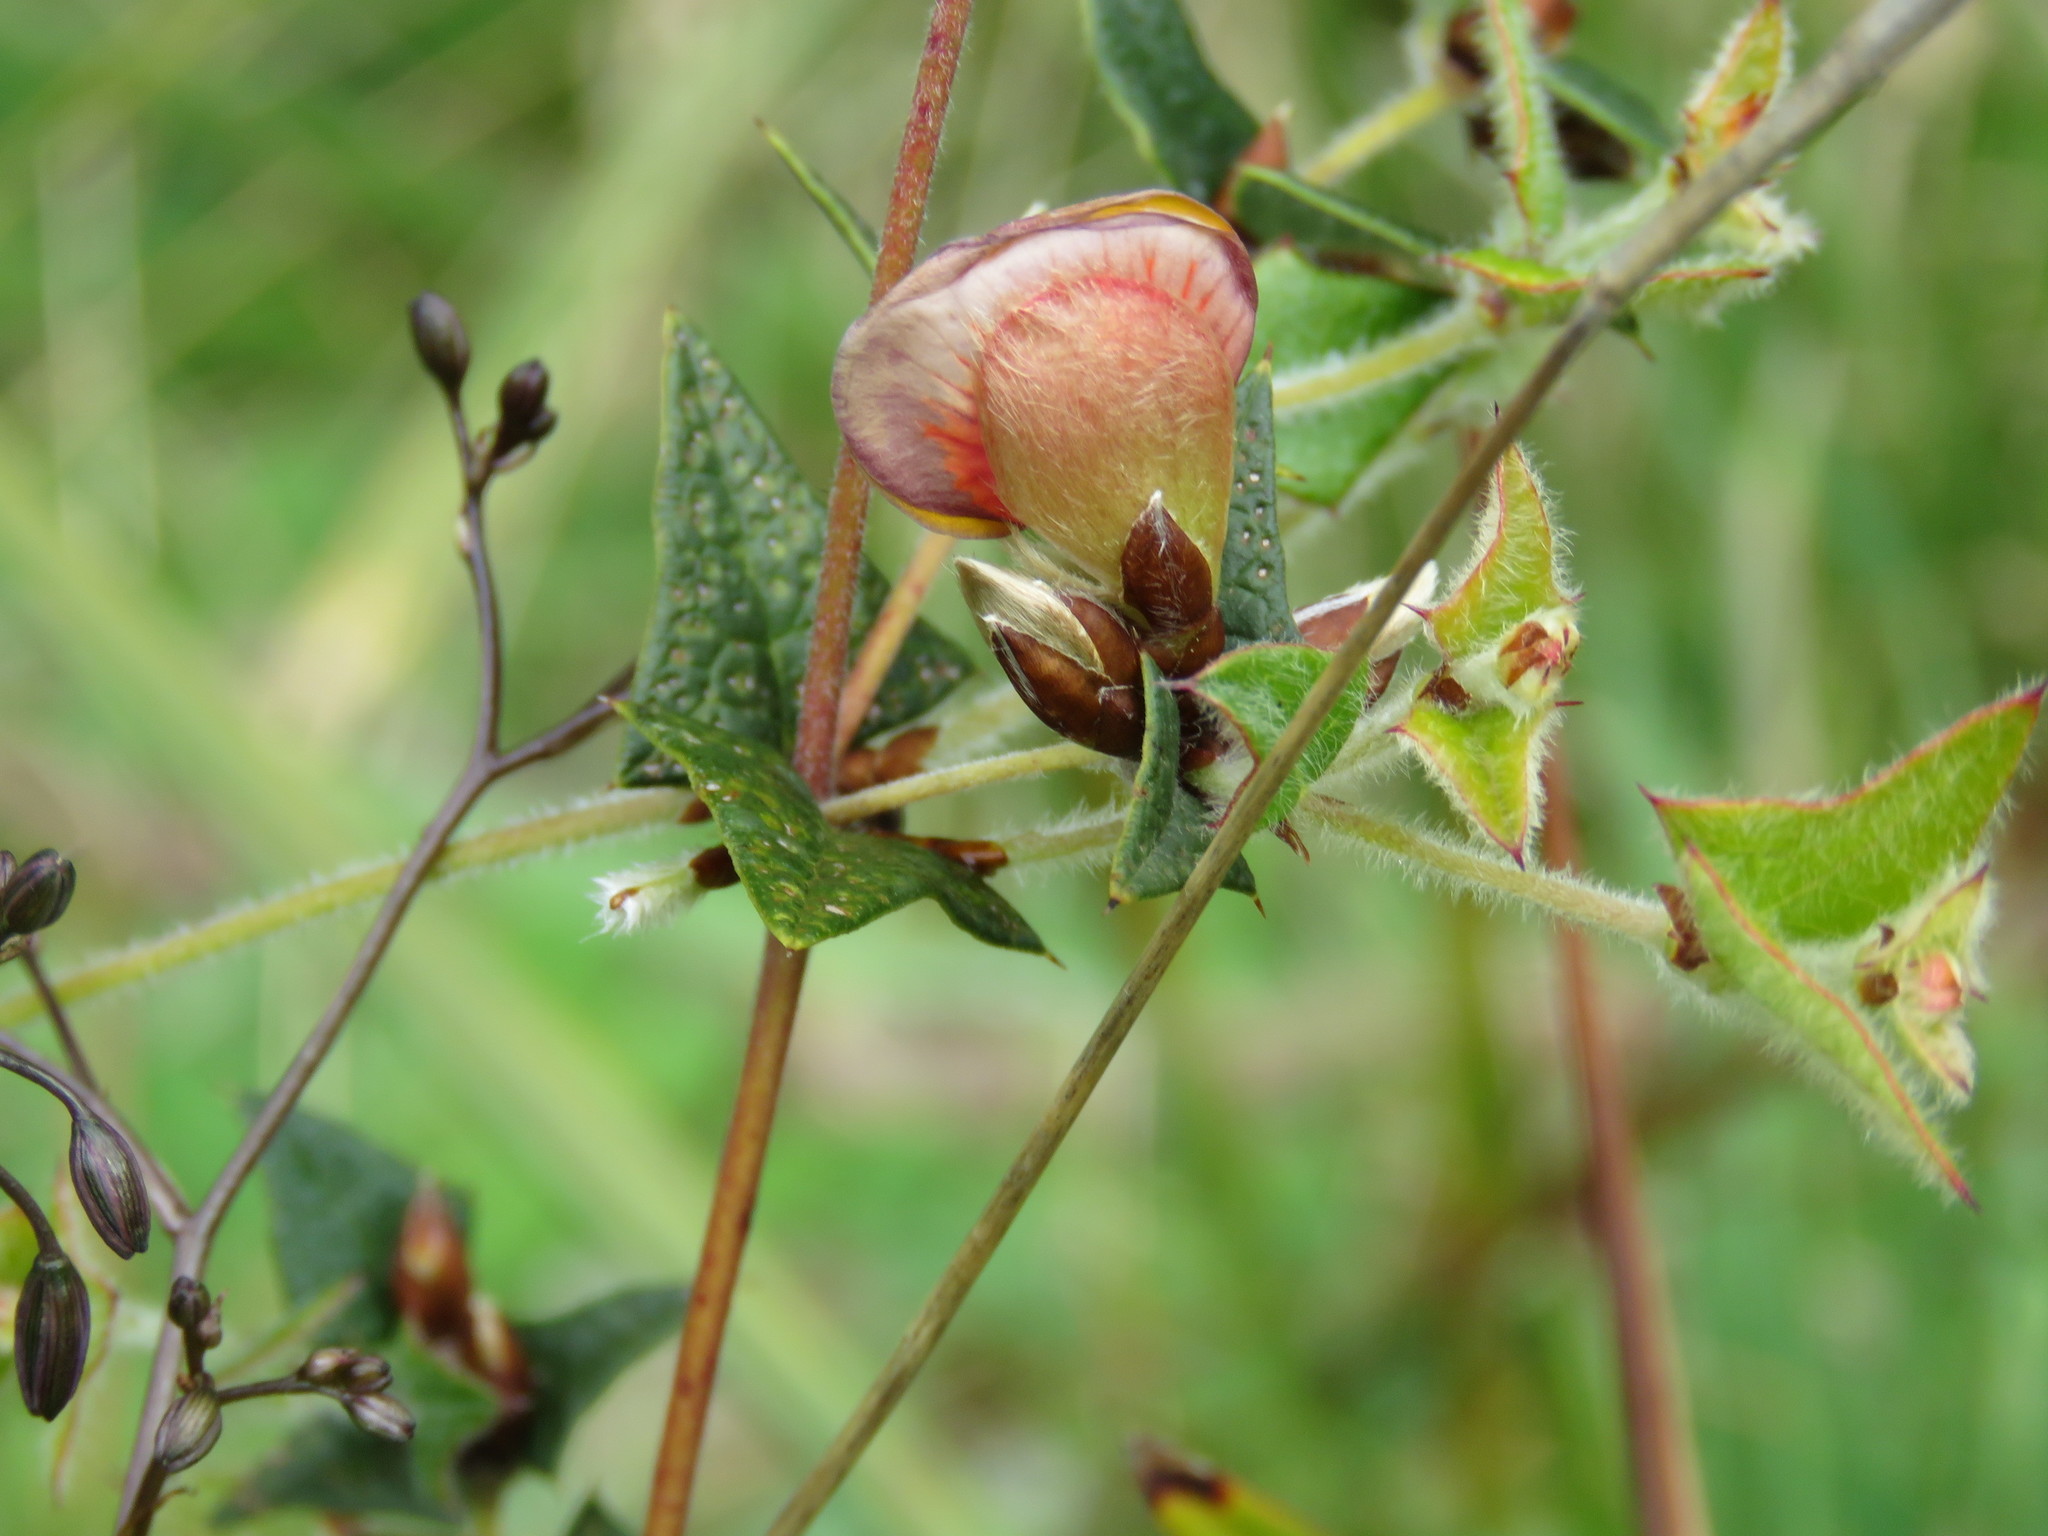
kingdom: Plantae
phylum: Tracheophyta
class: Magnoliopsida
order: Fabales
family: Fabaceae
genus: Platylobium
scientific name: Platylobium obtusangulum
